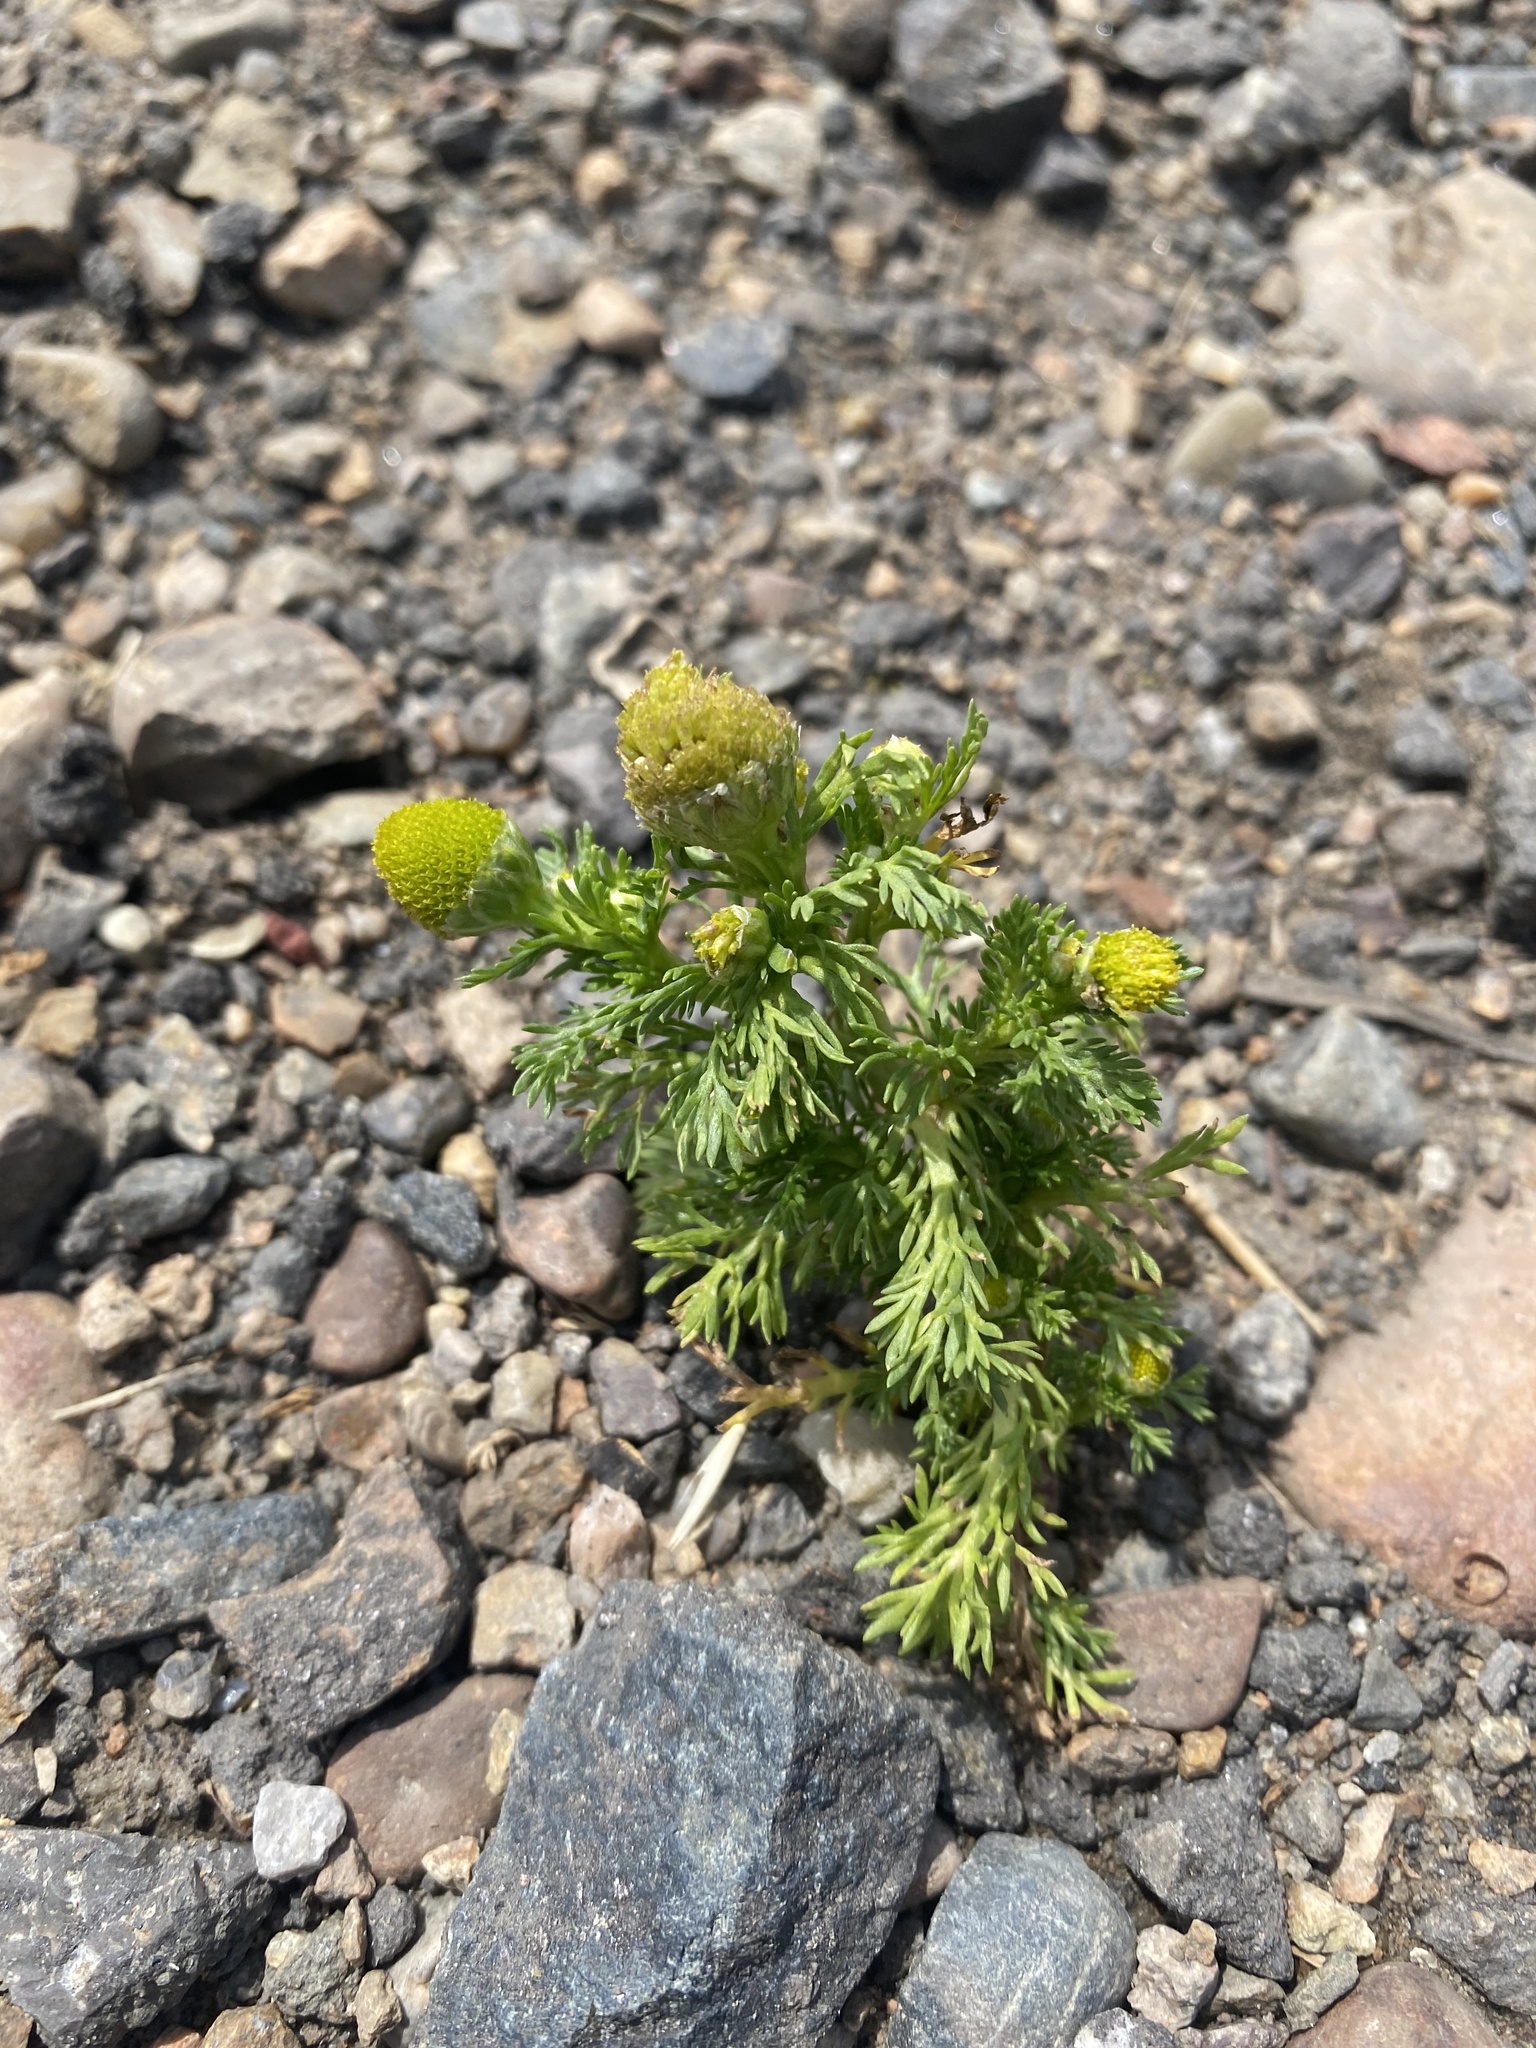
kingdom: Plantae
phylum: Tracheophyta
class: Magnoliopsida
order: Asterales
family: Asteraceae
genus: Matricaria
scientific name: Matricaria discoidea
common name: Disc mayweed
